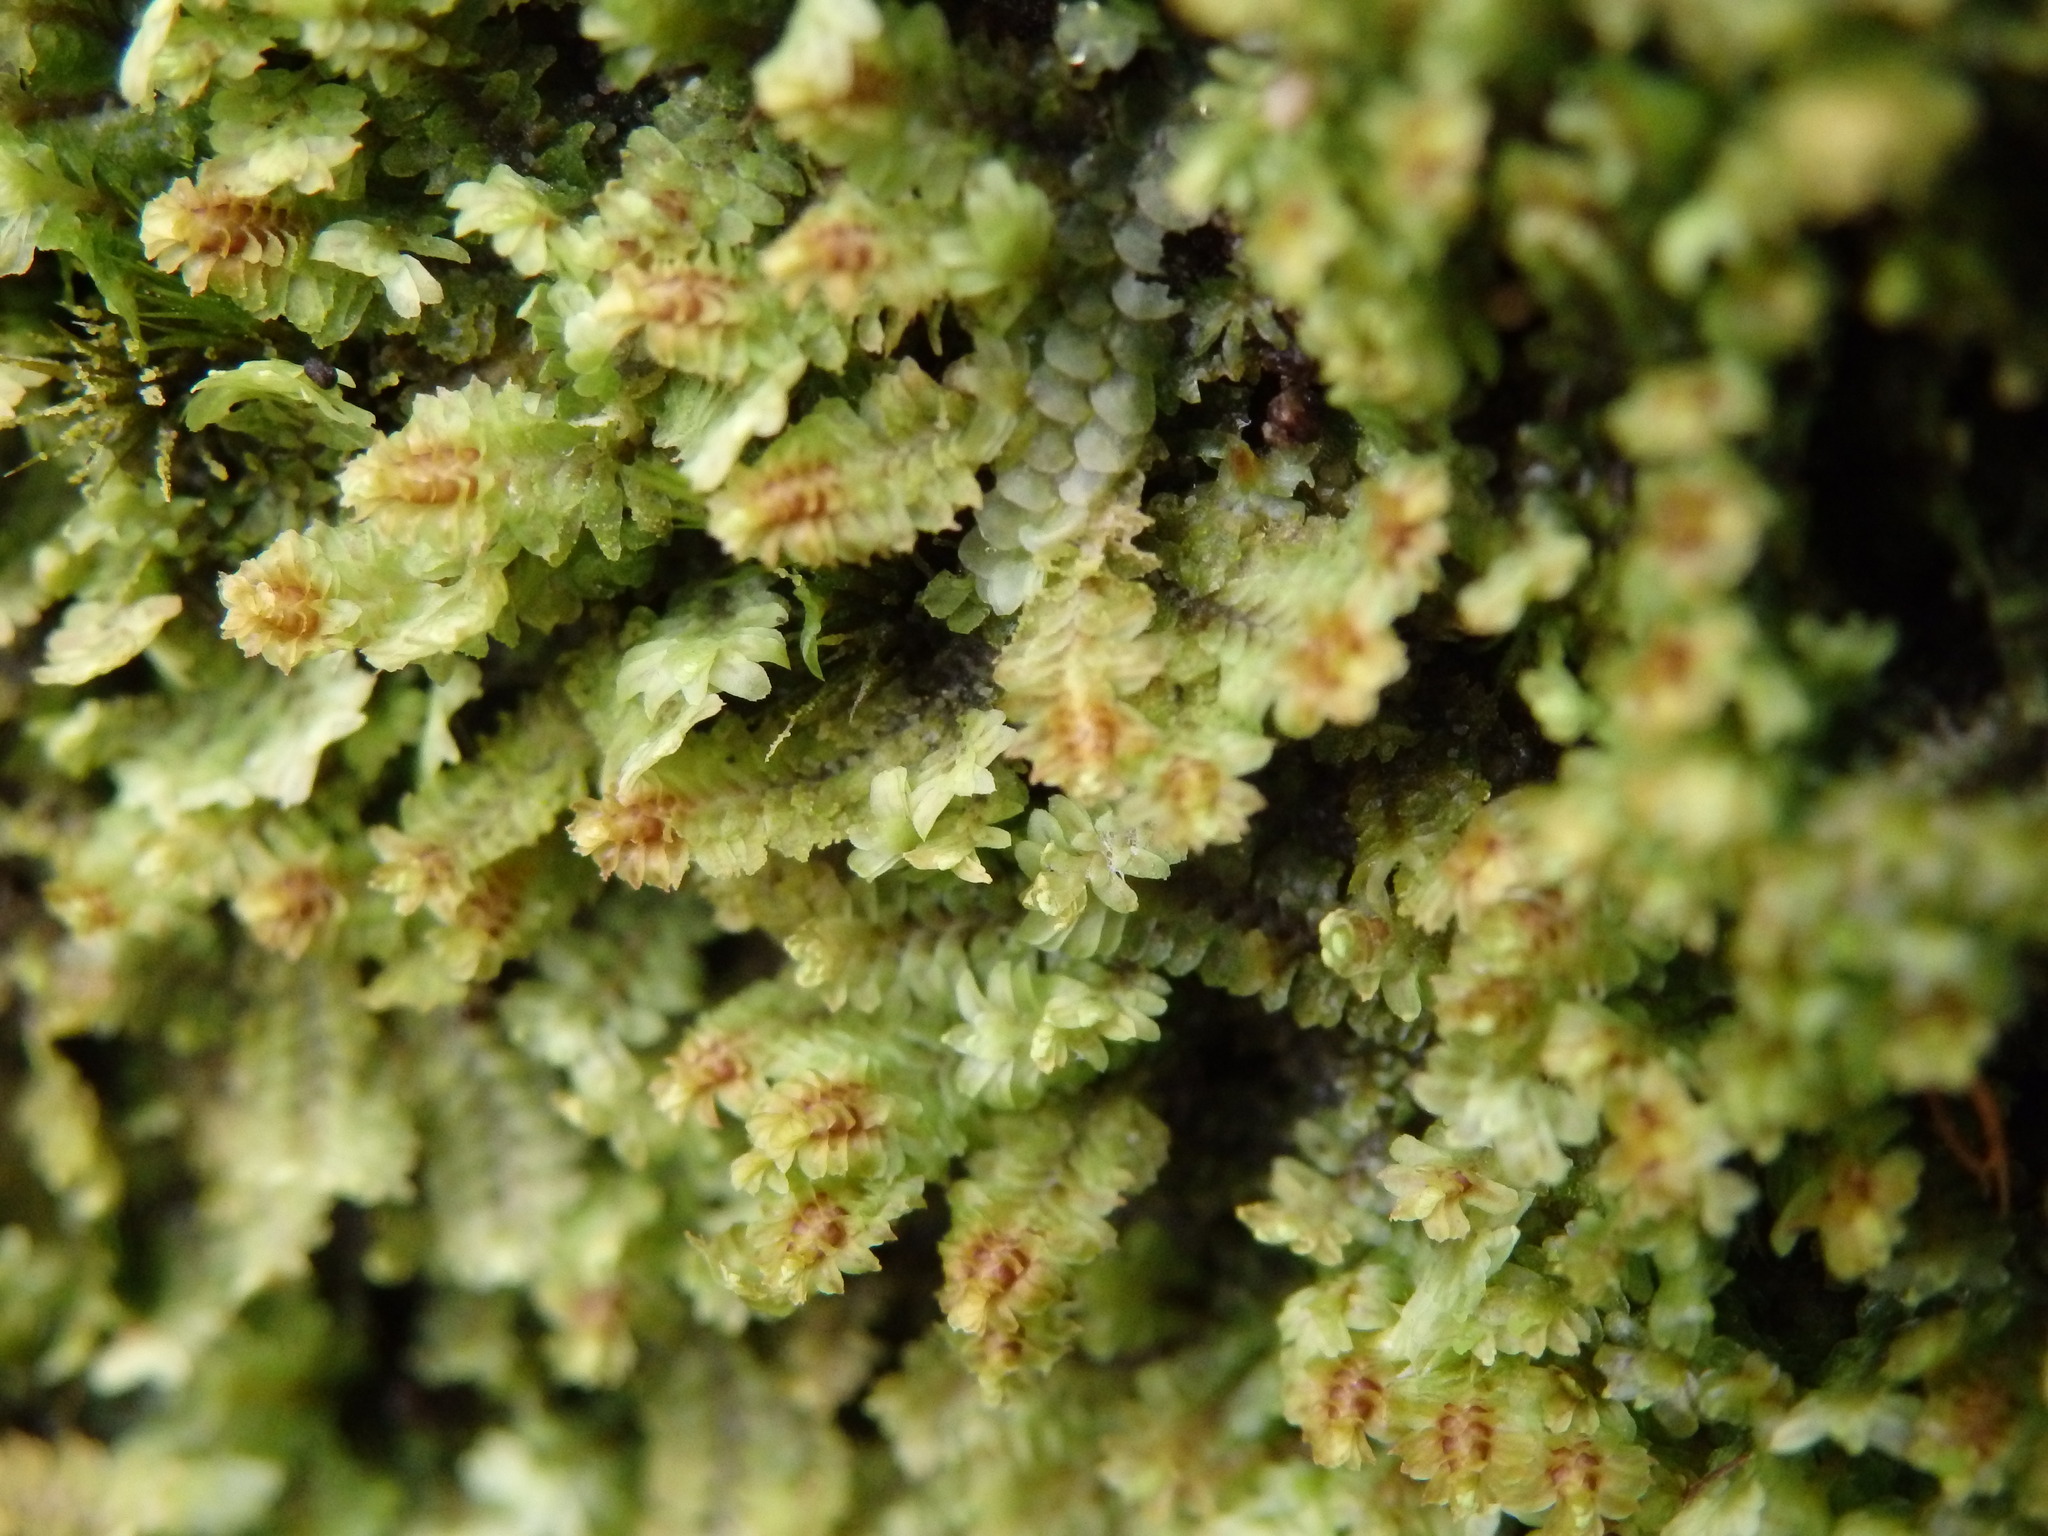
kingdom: Plantae
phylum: Marchantiophyta
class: Jungermanniopsida
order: Jungermanniales
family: Scapaniaceae
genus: Diplophyllum
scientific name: Diplophyllum albicans
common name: White earwort
